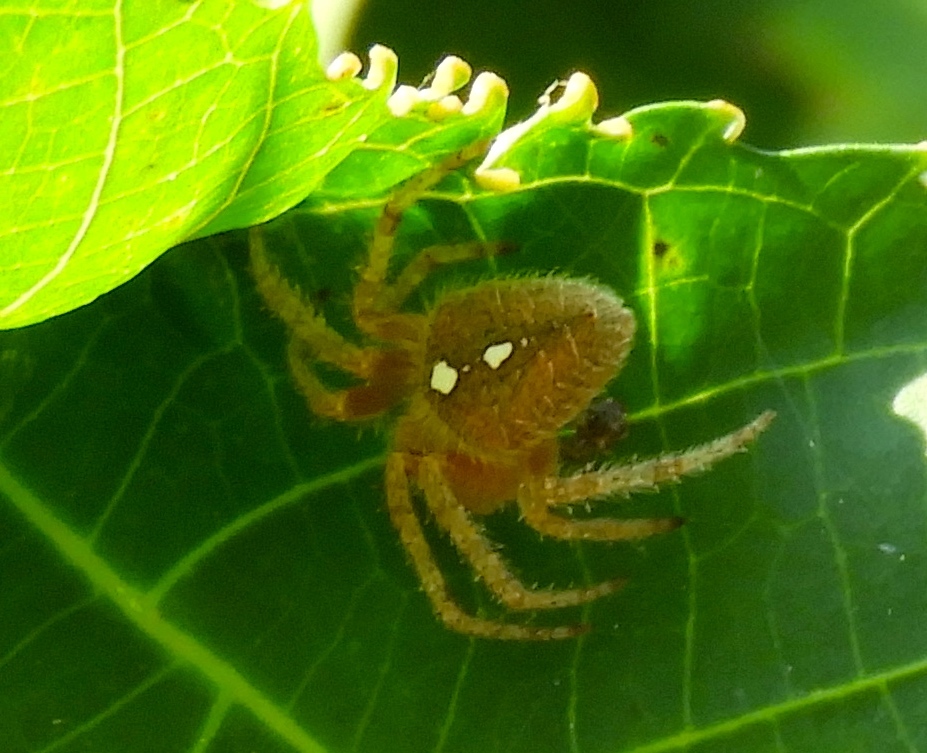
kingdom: Animalia
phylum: Arthropoda
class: Arachnida
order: Araneae
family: Araneidae
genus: Eriophora
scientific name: Eriophora ravilla
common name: Orb weavers
